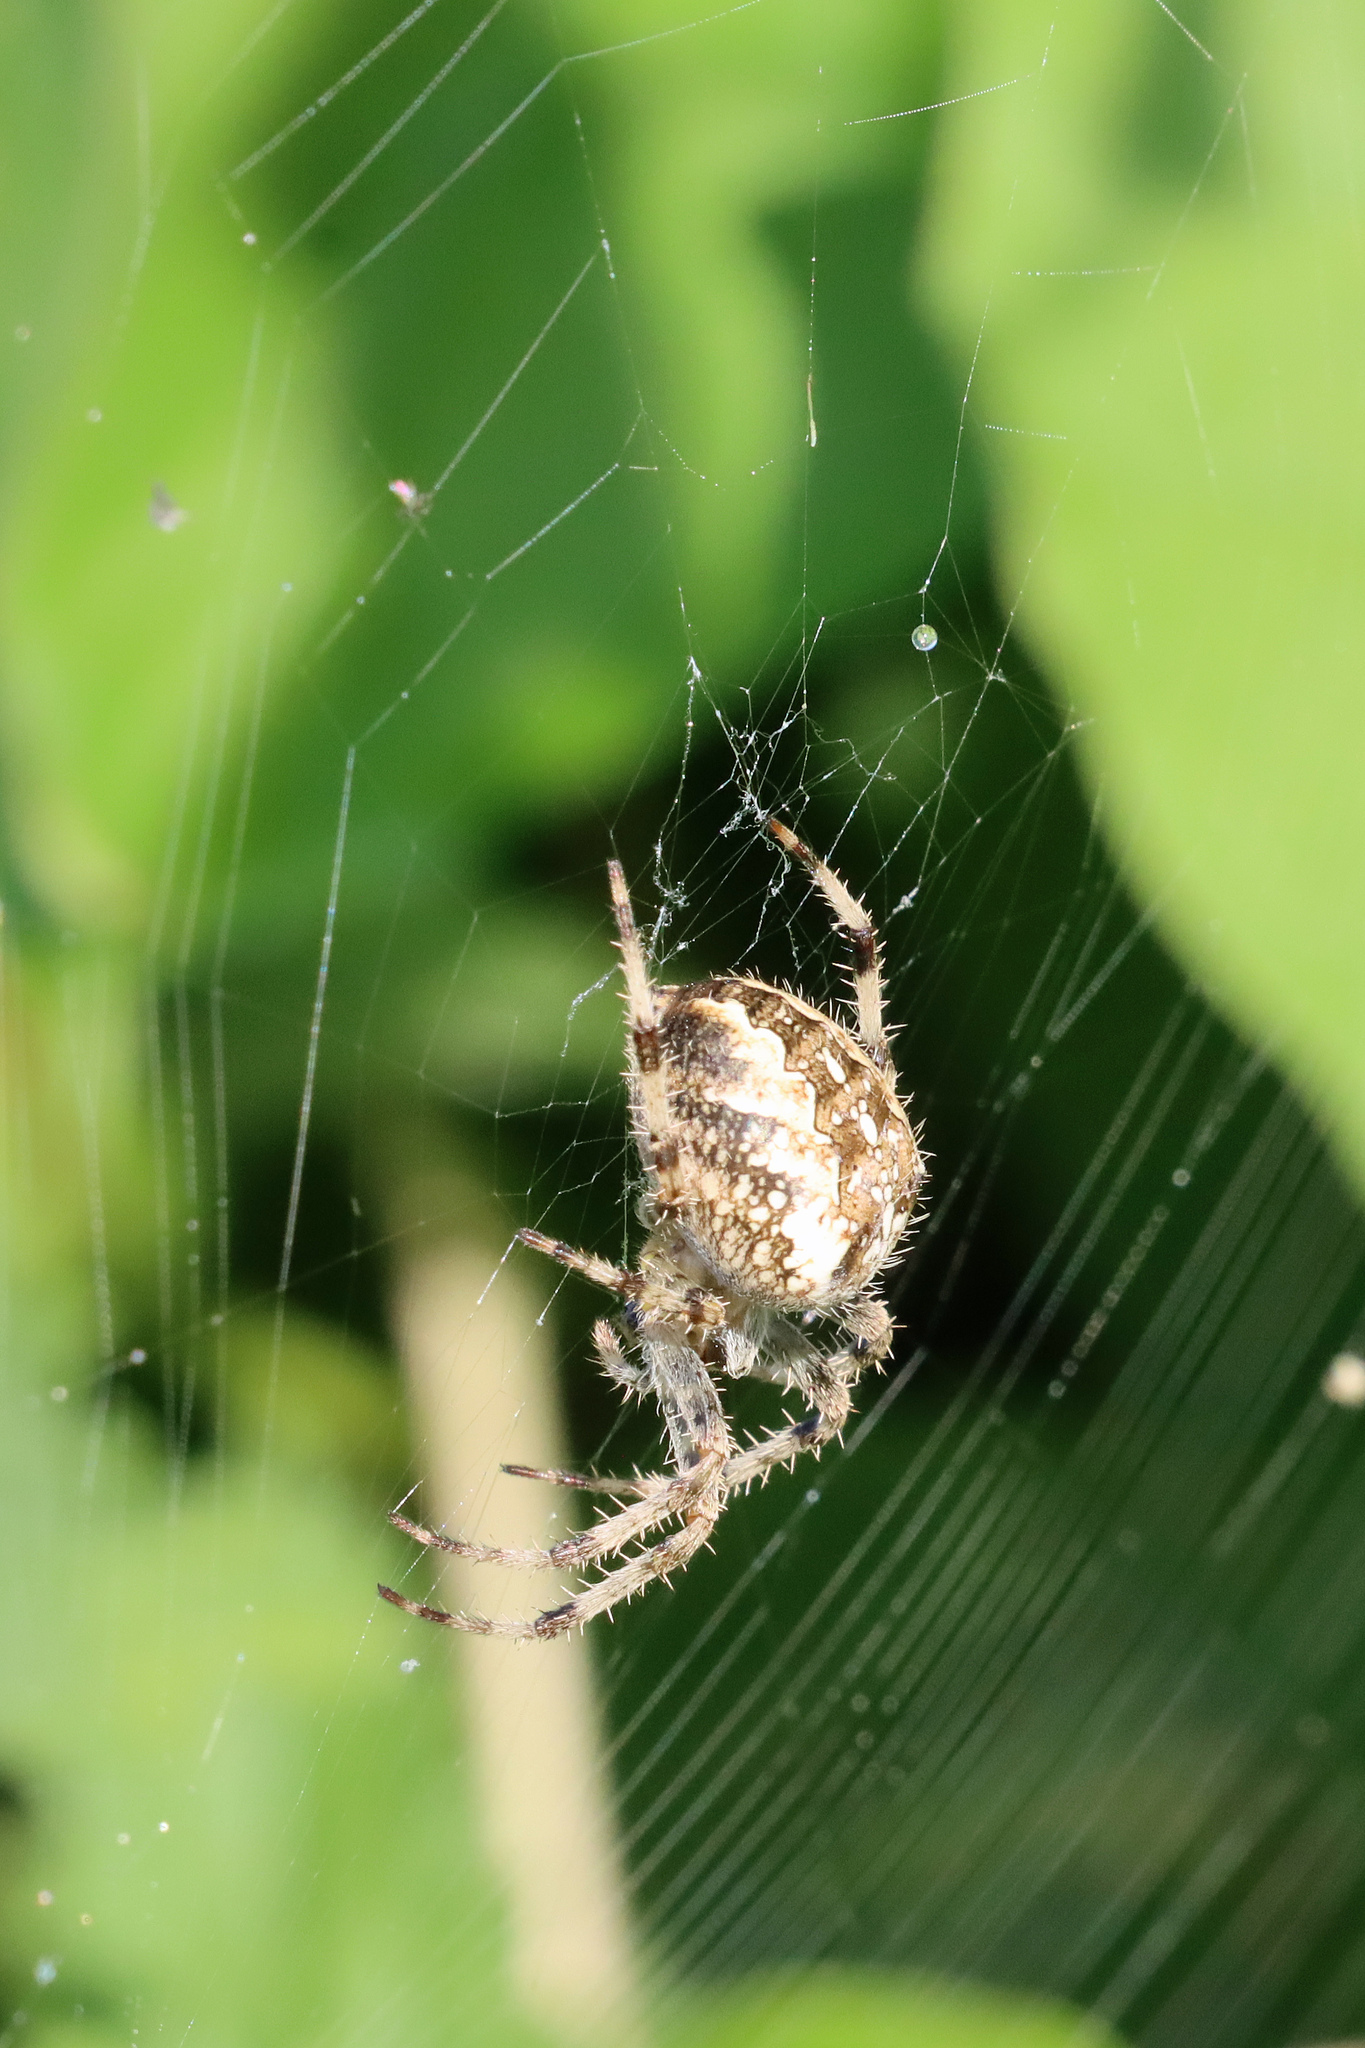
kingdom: Animalia
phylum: Arthropoda
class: Arachnida
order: Araneae
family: Araneidae
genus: Araneus
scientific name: Araneus diadematus
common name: Cross orbweaver
